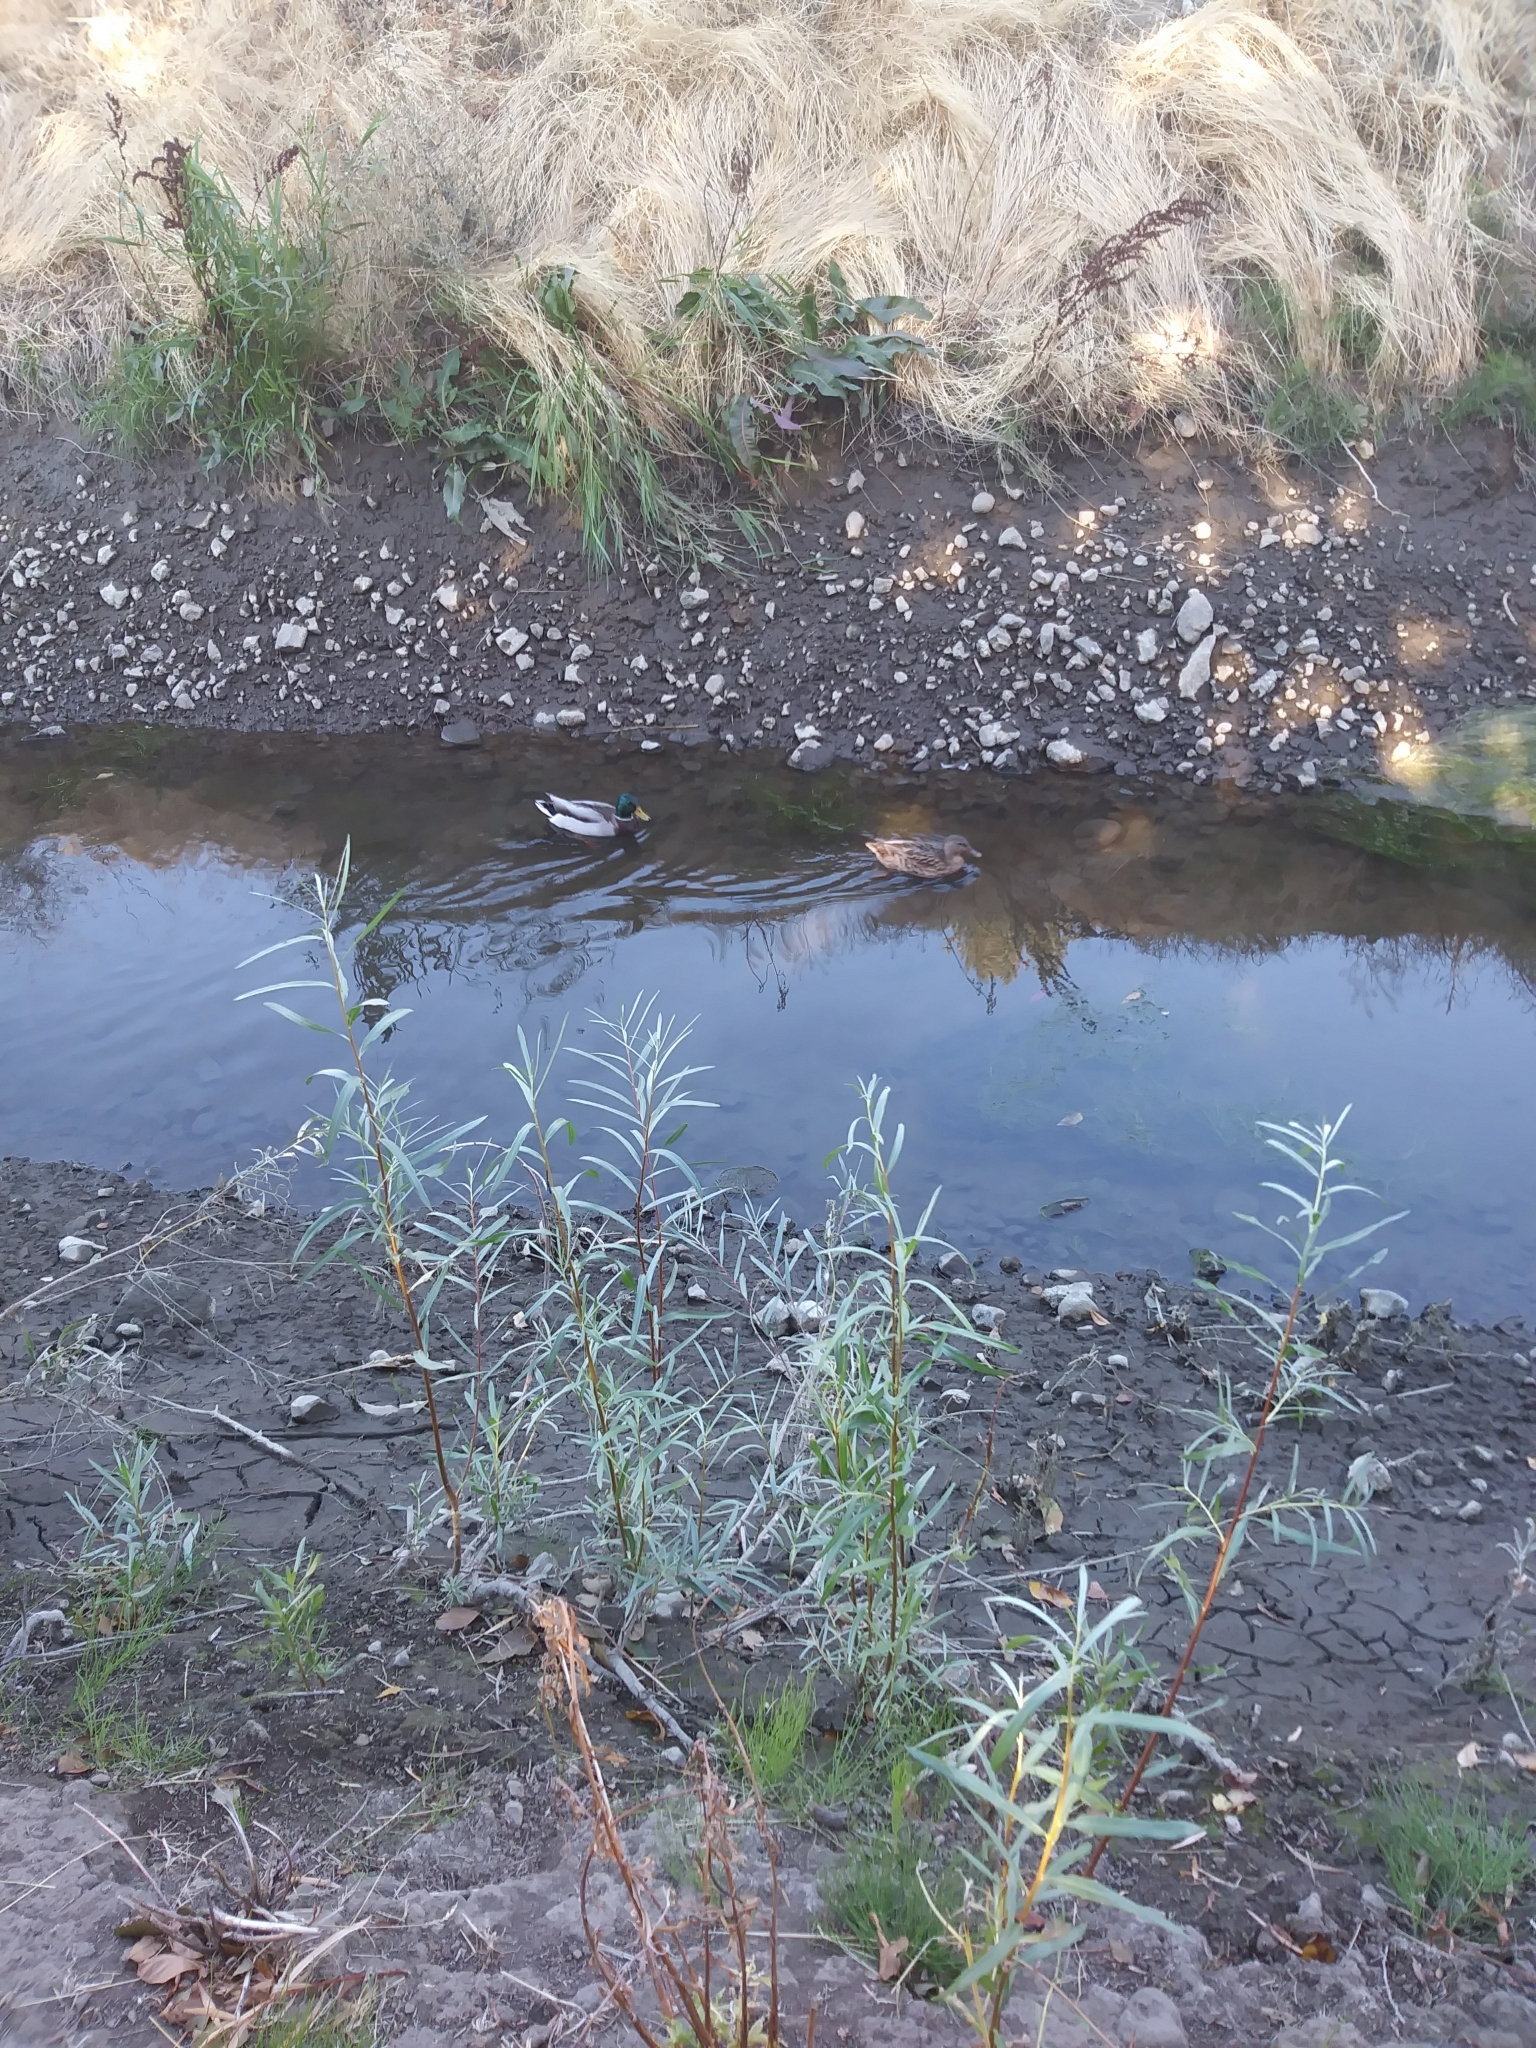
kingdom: Animalia
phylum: Chordata
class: Aves
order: Anseriformes
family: Anatidae
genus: Anas
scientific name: Anas platyrhynchos
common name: Mallard
